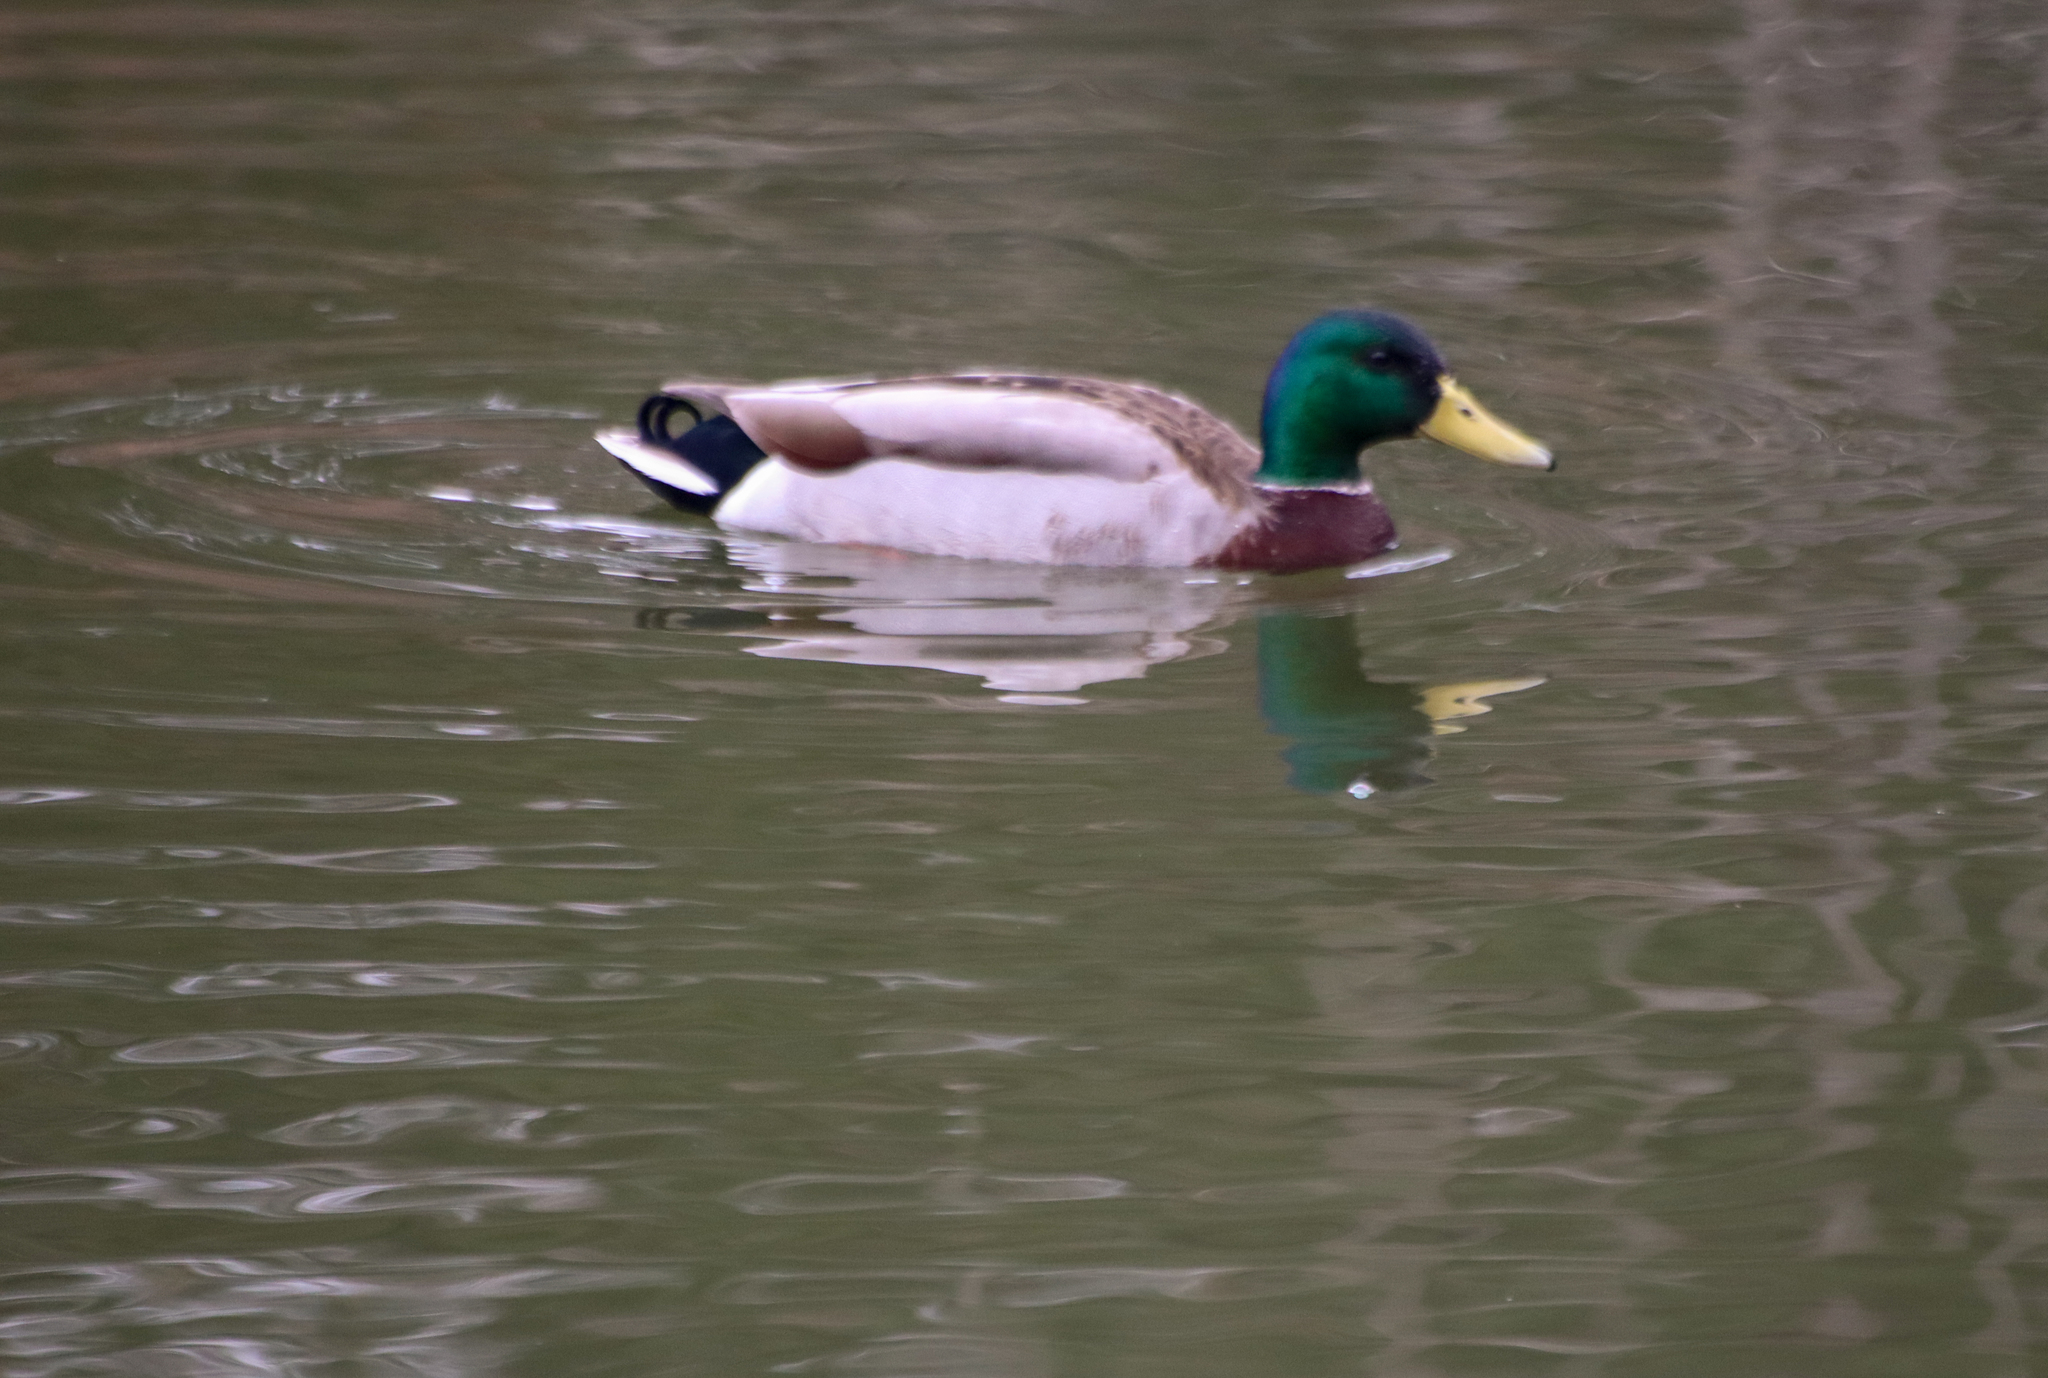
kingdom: Animalia
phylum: Chordata
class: Aves
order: Anseriformes
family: Anatidae
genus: Anas
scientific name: Anas platyrhynchos
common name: Mallard
